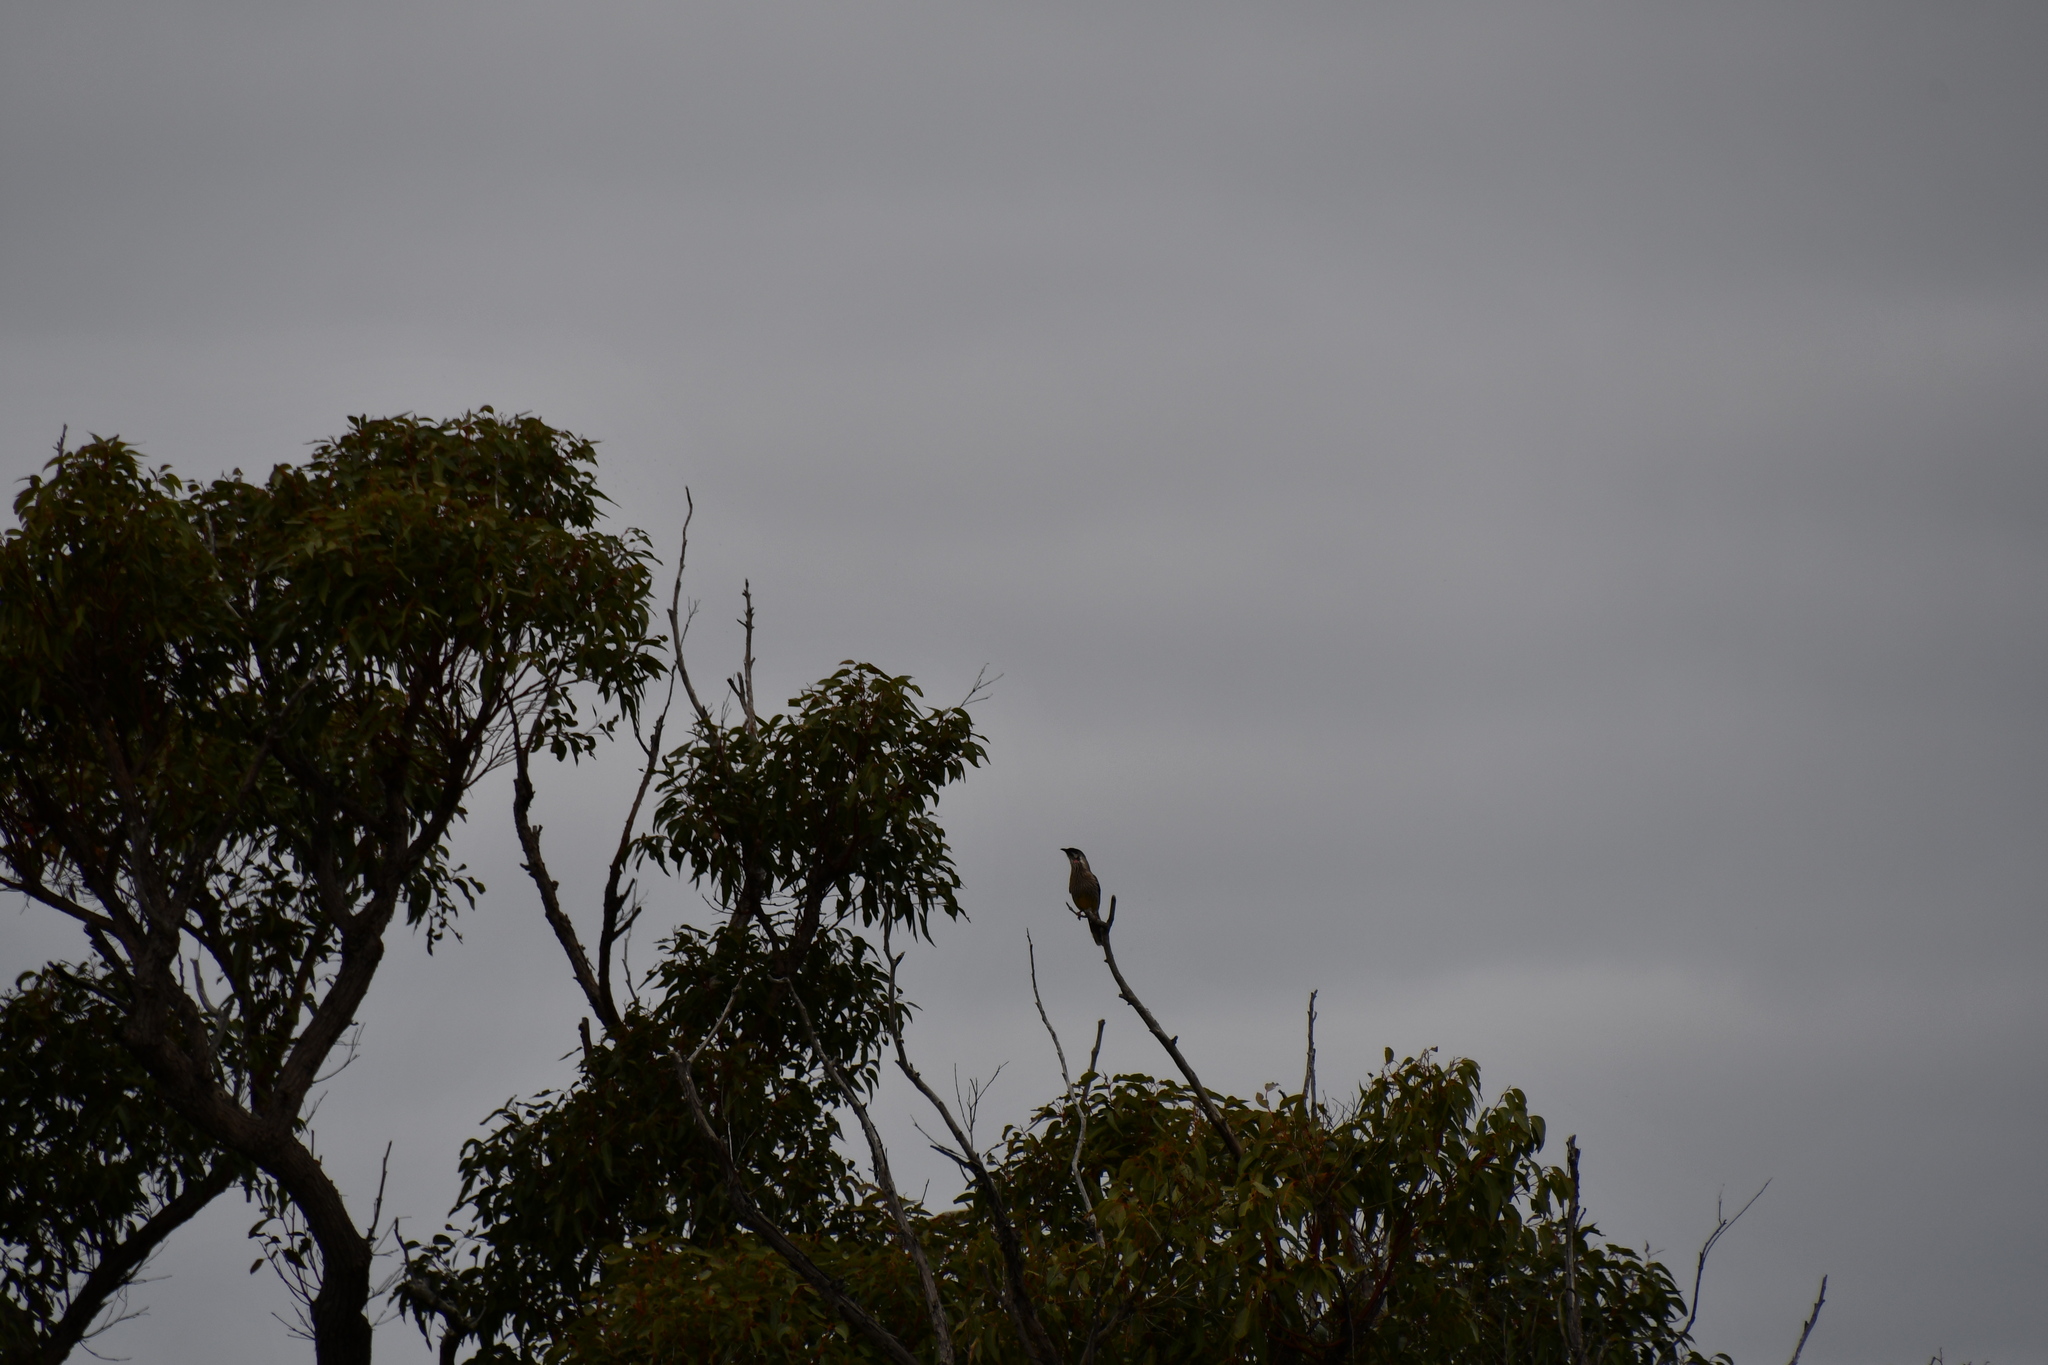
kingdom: Animalia
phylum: Chordata
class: Aves
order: Passeriformes
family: Meliphagidae
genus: Anthochaera
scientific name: Anthochaera carunculata
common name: Red wattlebird
